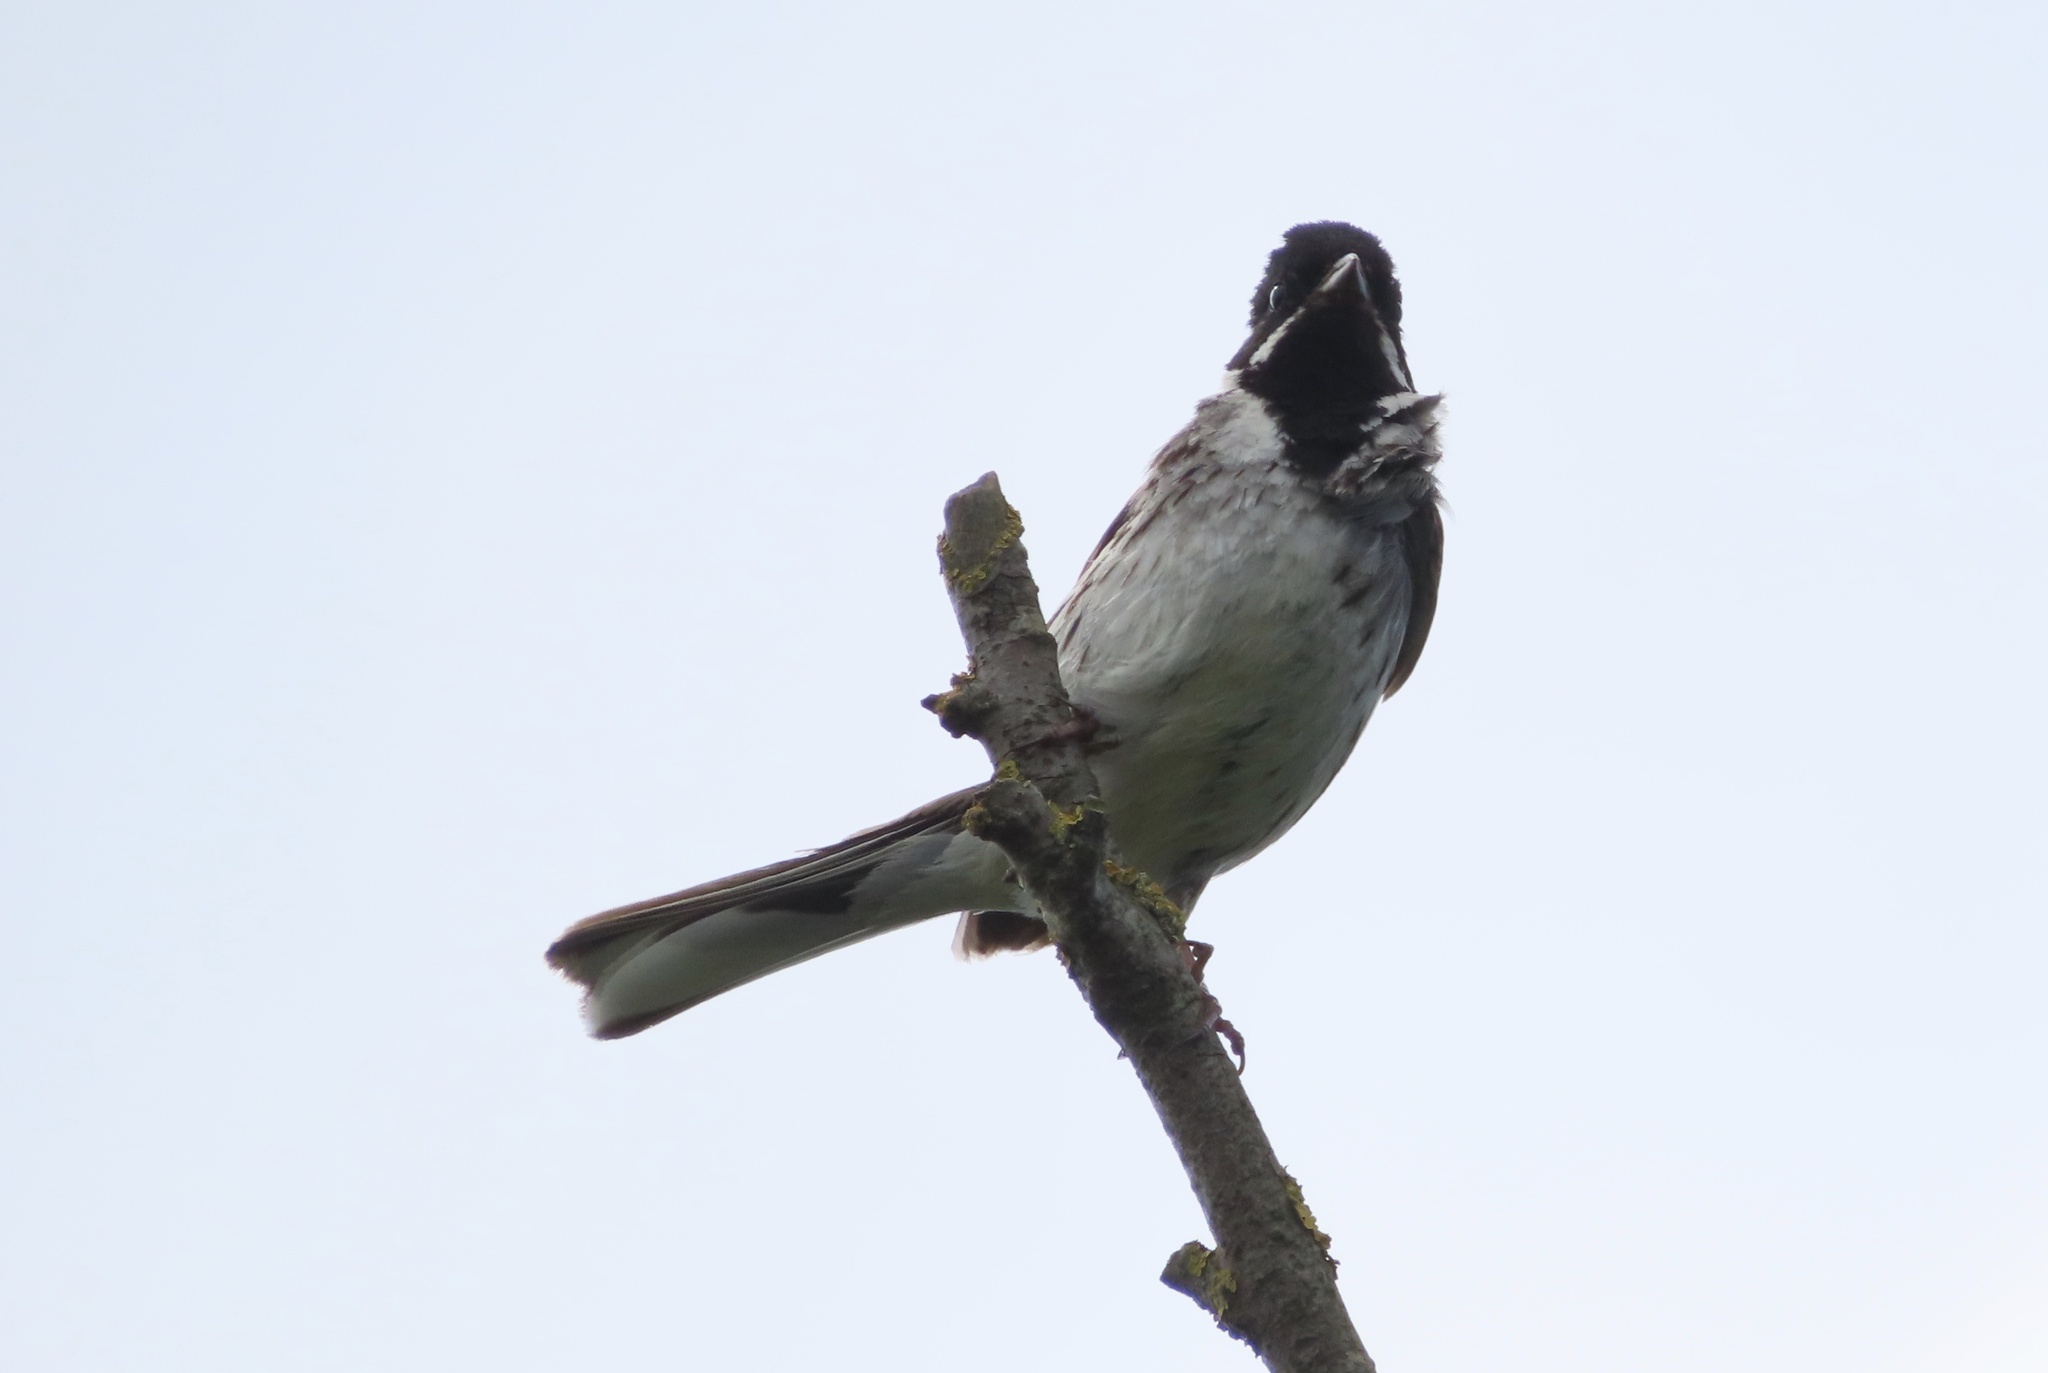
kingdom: Animalia
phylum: Chordata
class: Aves
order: Passeriformes
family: Emberizidae
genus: Emberiza
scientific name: Emberiza schoeniclus
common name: Reed bunting
